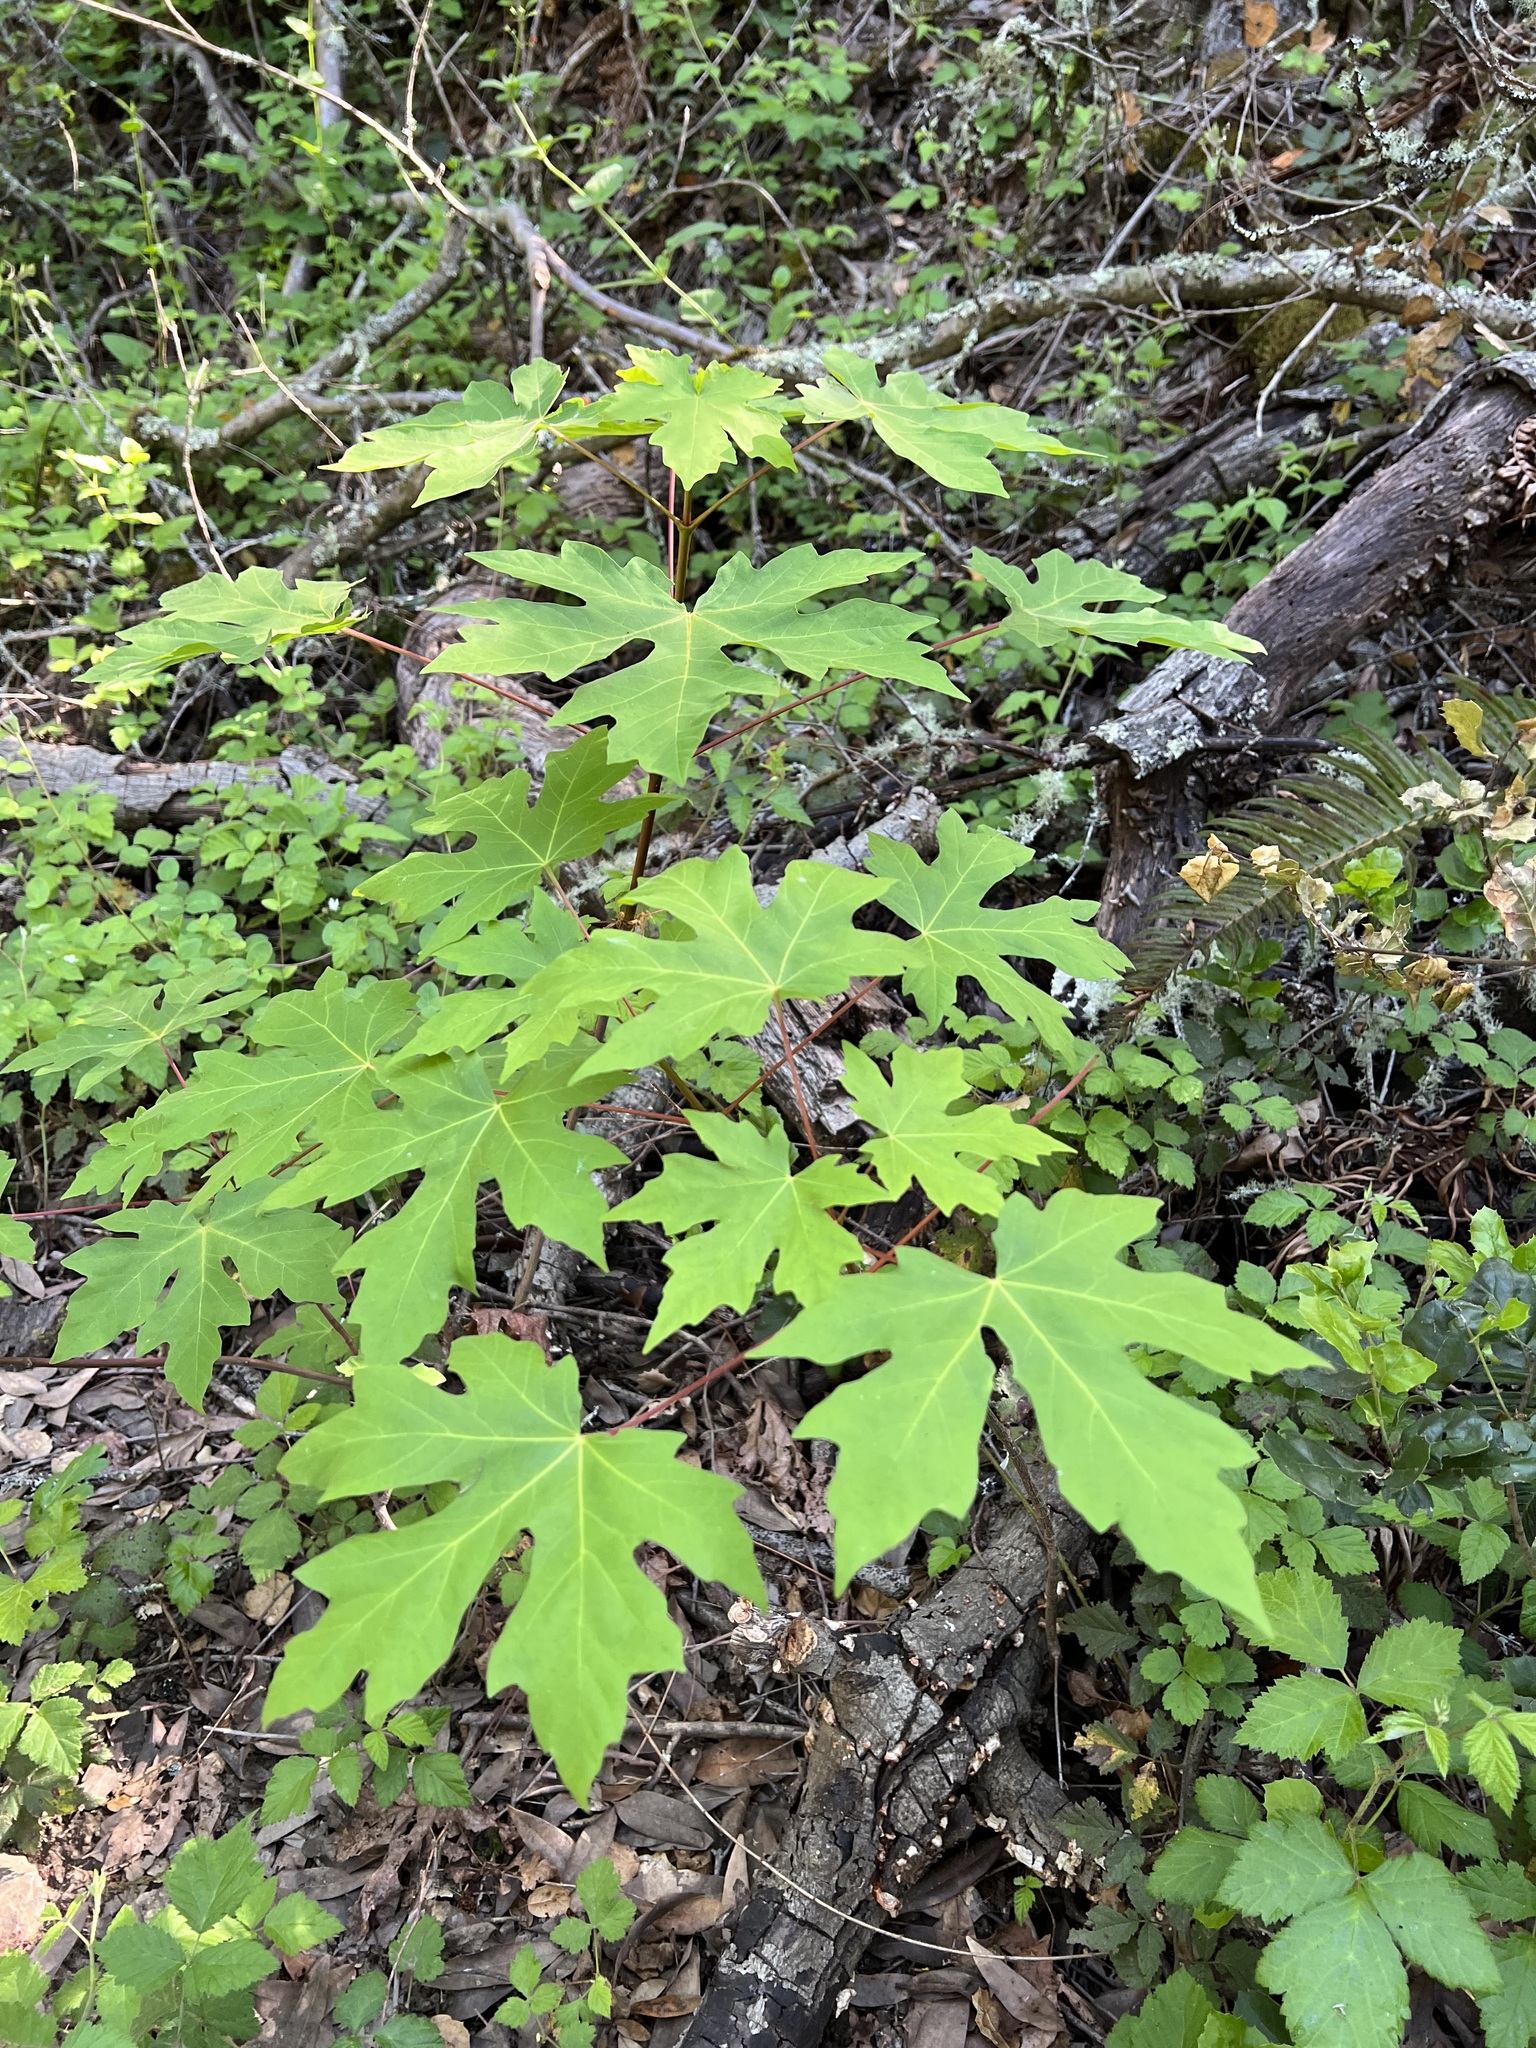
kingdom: Plantae
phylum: Tracheophyta
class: Magnoliopsida
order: Sapindales
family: Sapindaceae
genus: Acer
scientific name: Acer macrophyllum
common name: Oregon maple
